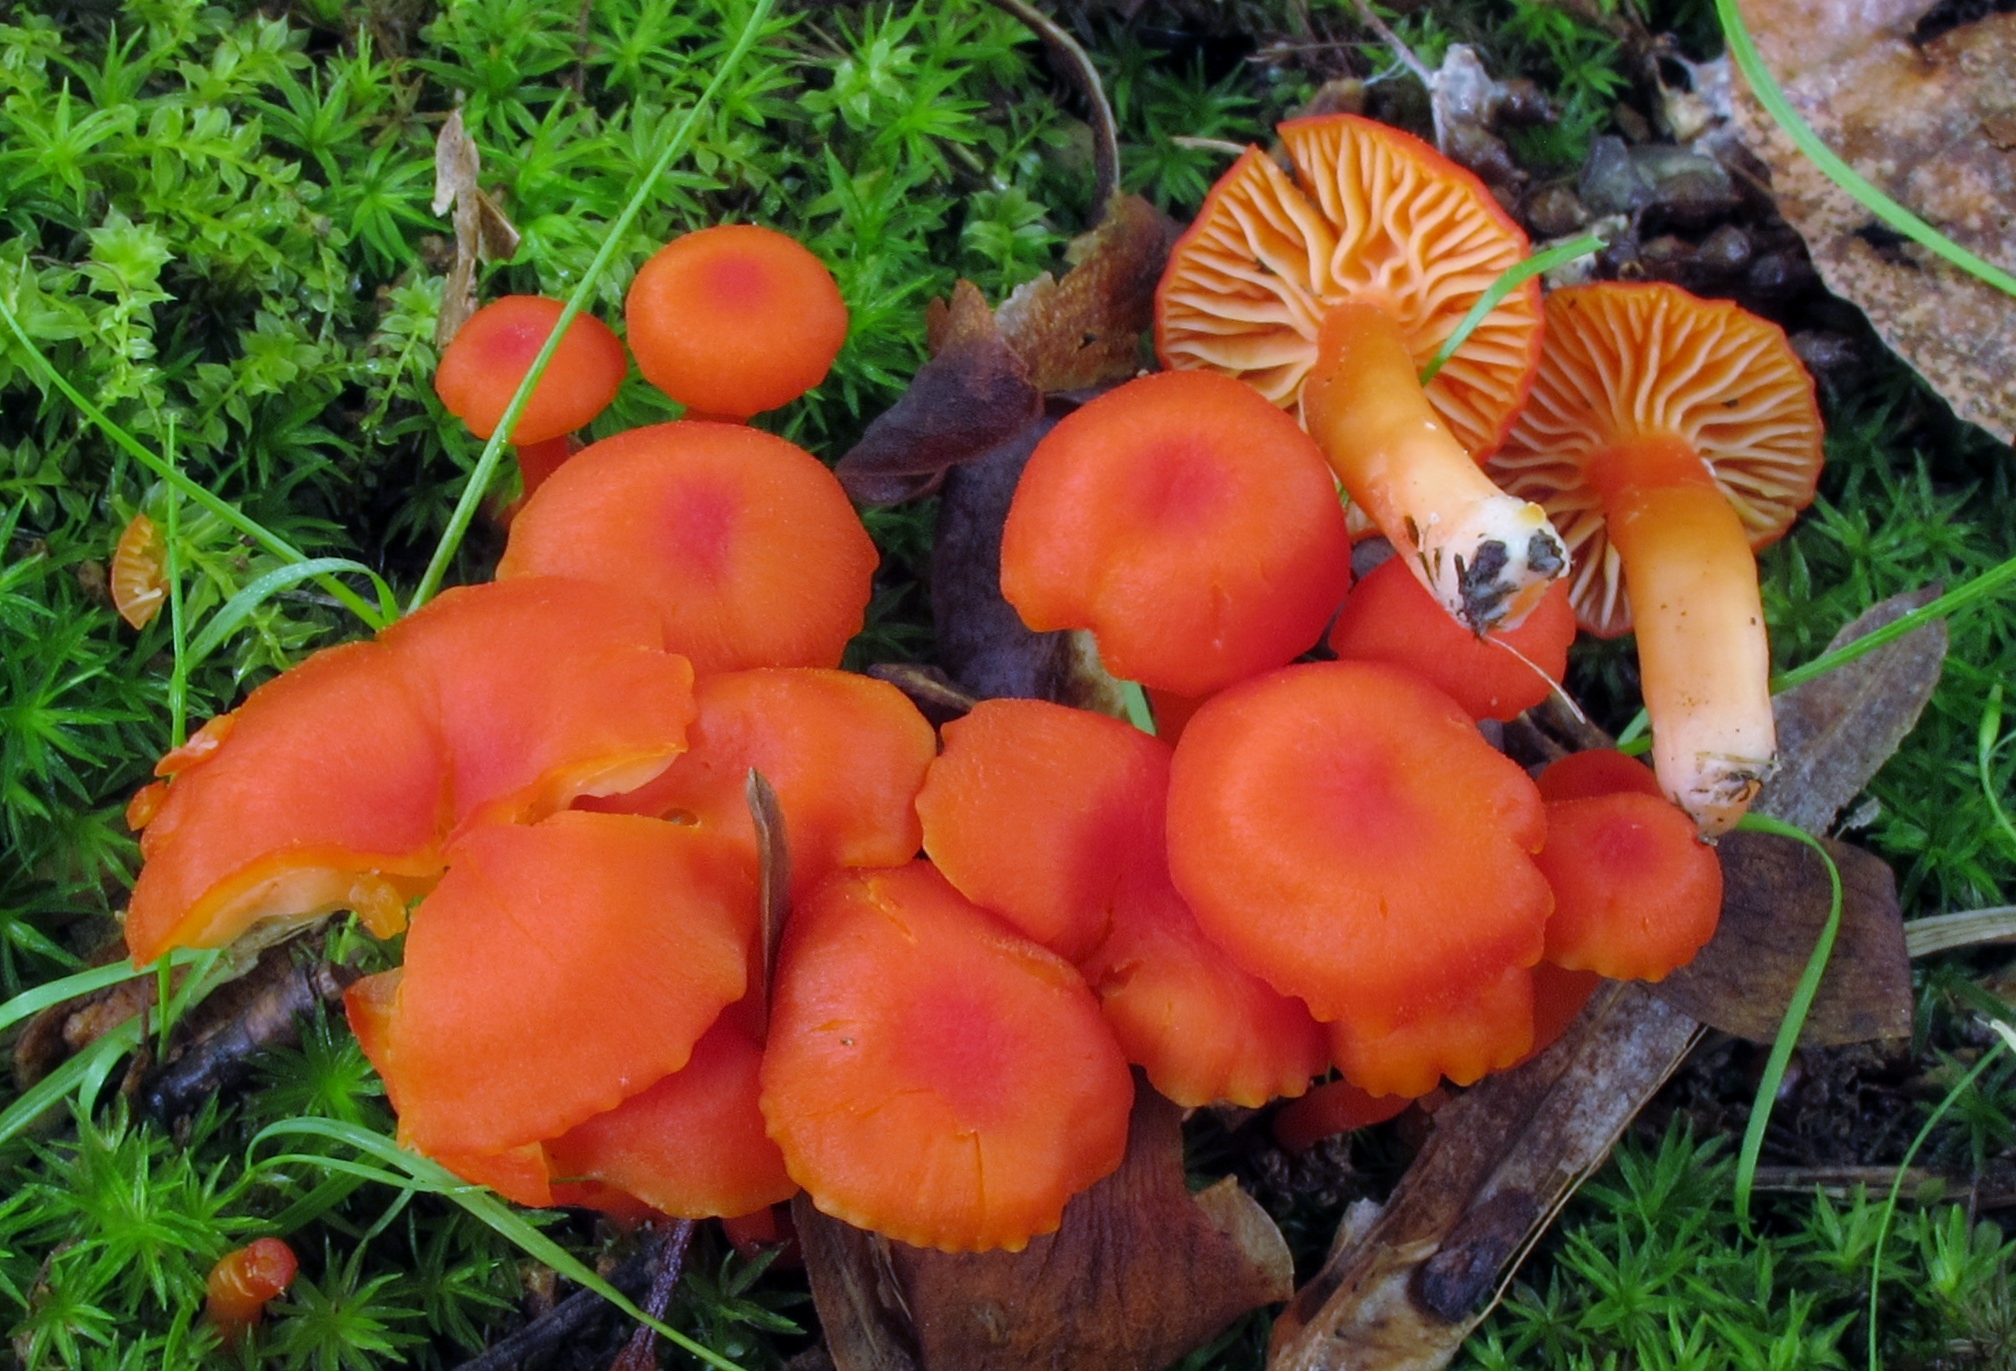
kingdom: Fungi
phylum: Basidiomycota
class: Agaricomycetes
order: Agaricales
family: Hygrophoraceae
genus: Hygrocybe
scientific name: Hygrocybe miniata
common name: Vermilion waxcap
